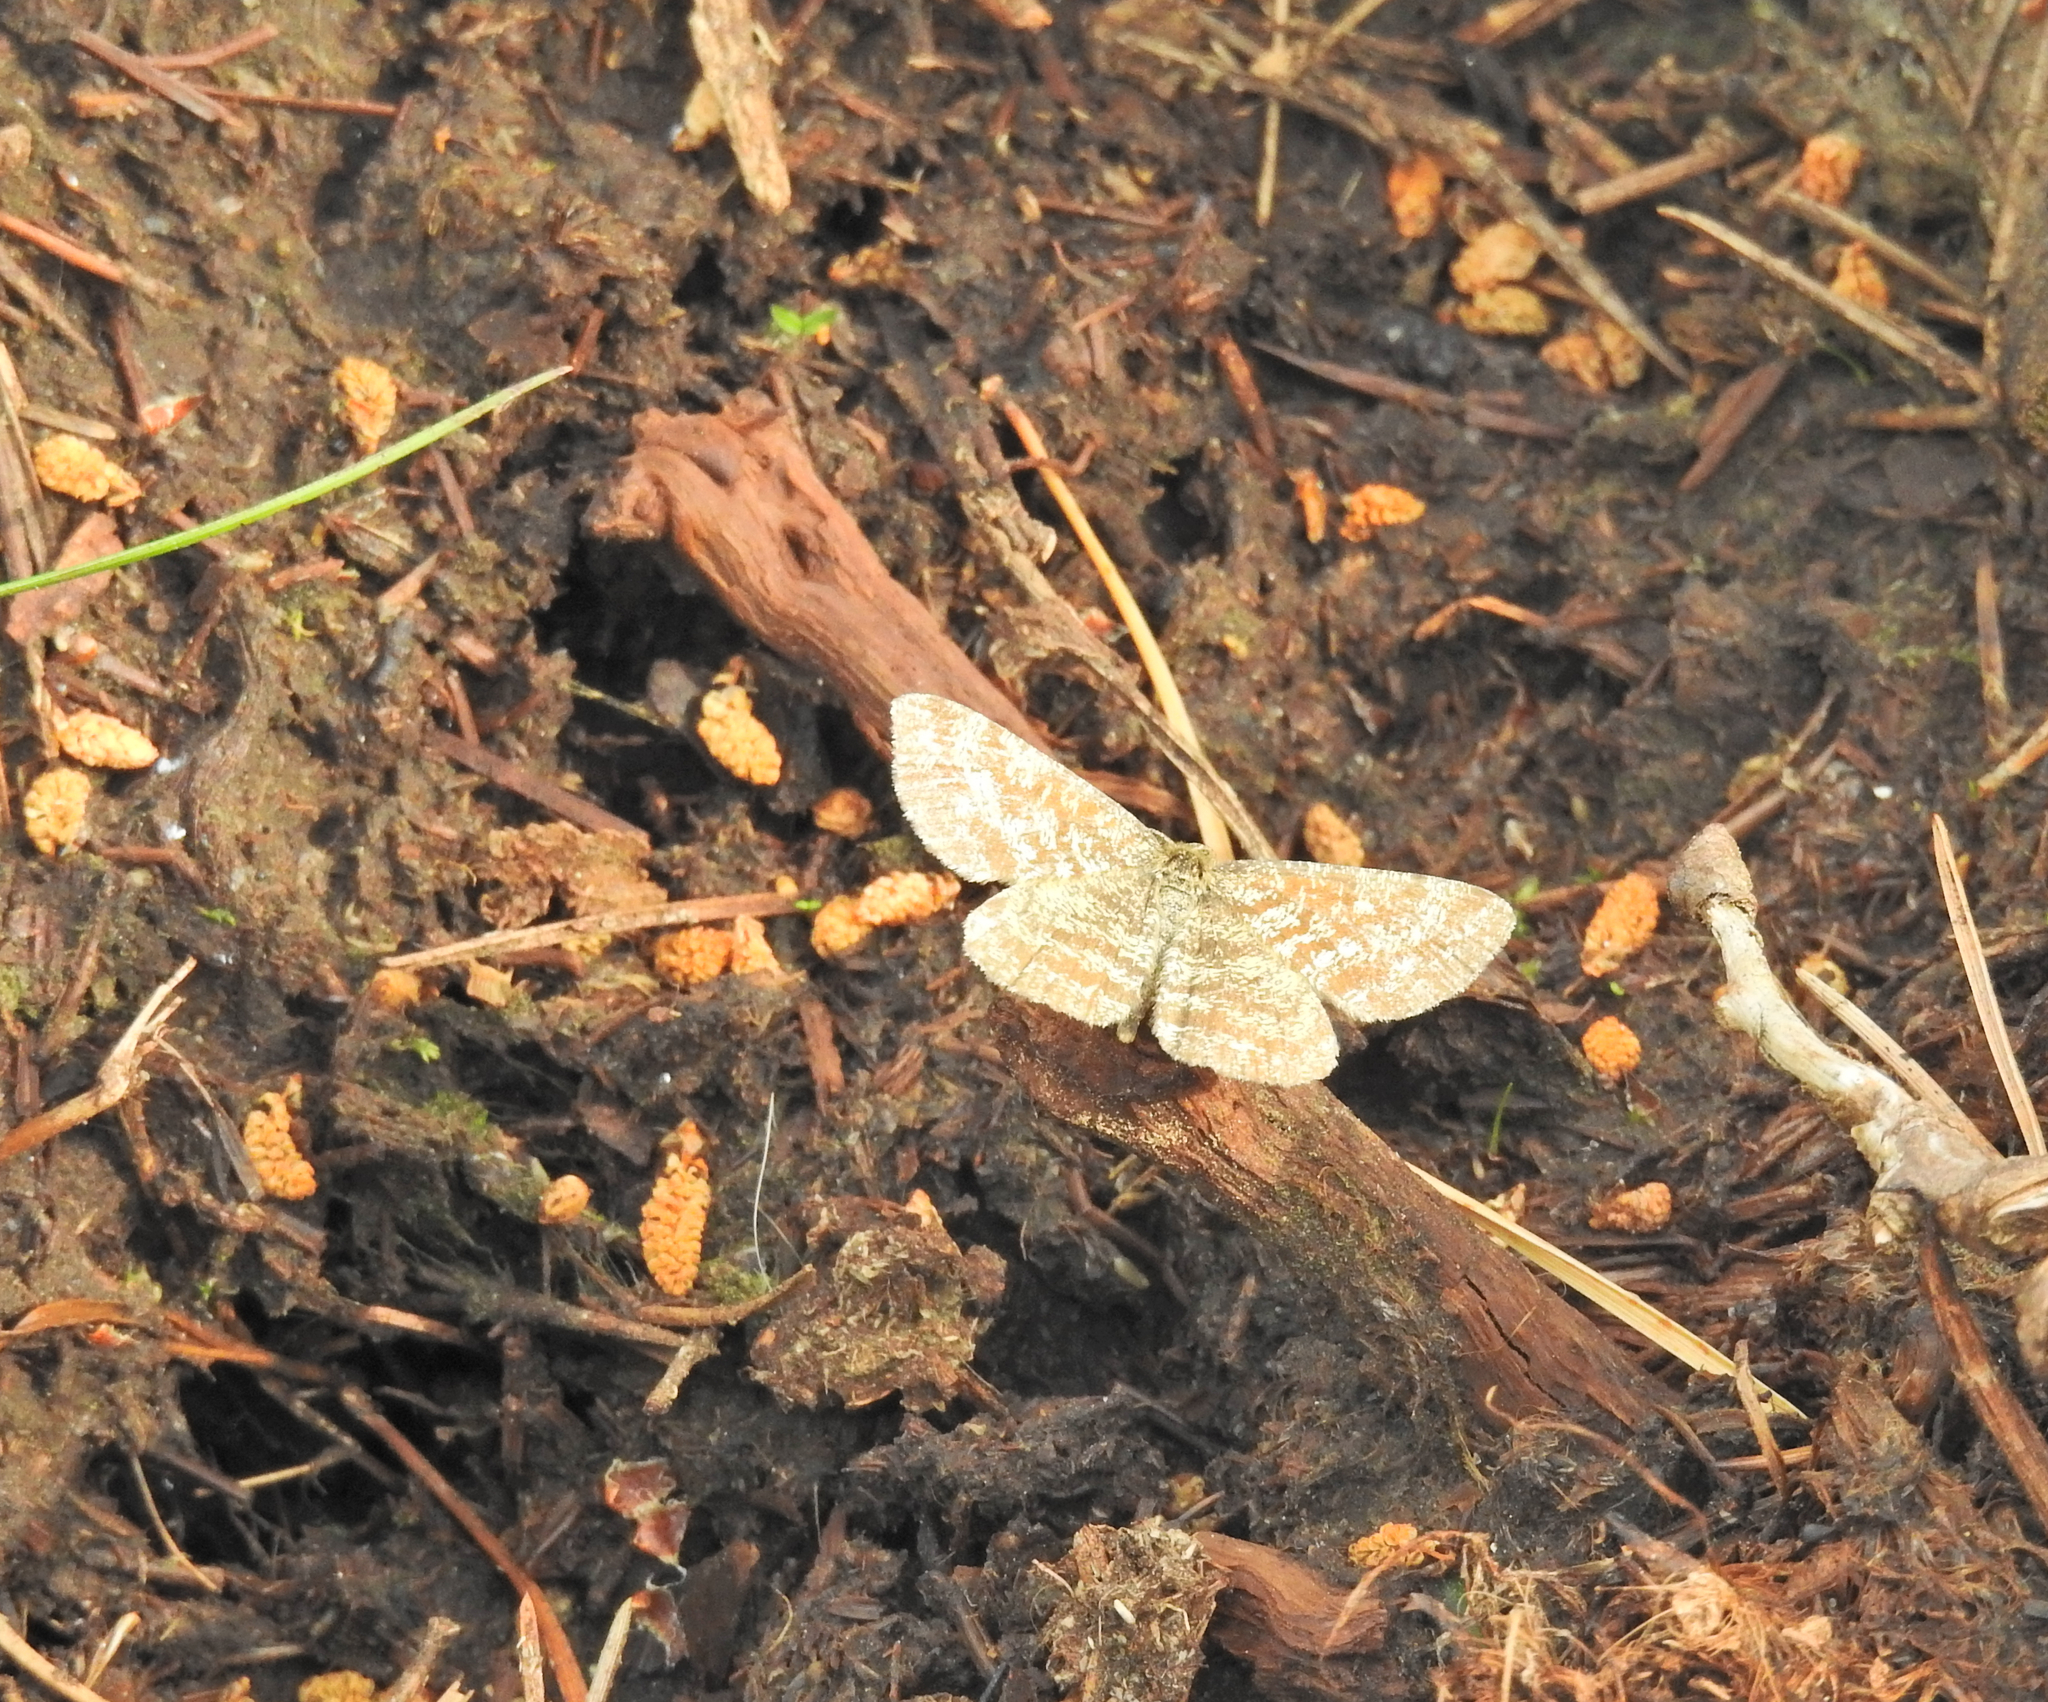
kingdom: Animalia
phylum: Arthropoda
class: Insecta
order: Lepidoptera
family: Geometridae
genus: Ematurga
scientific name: Ematurga atomaria
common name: Common heath
